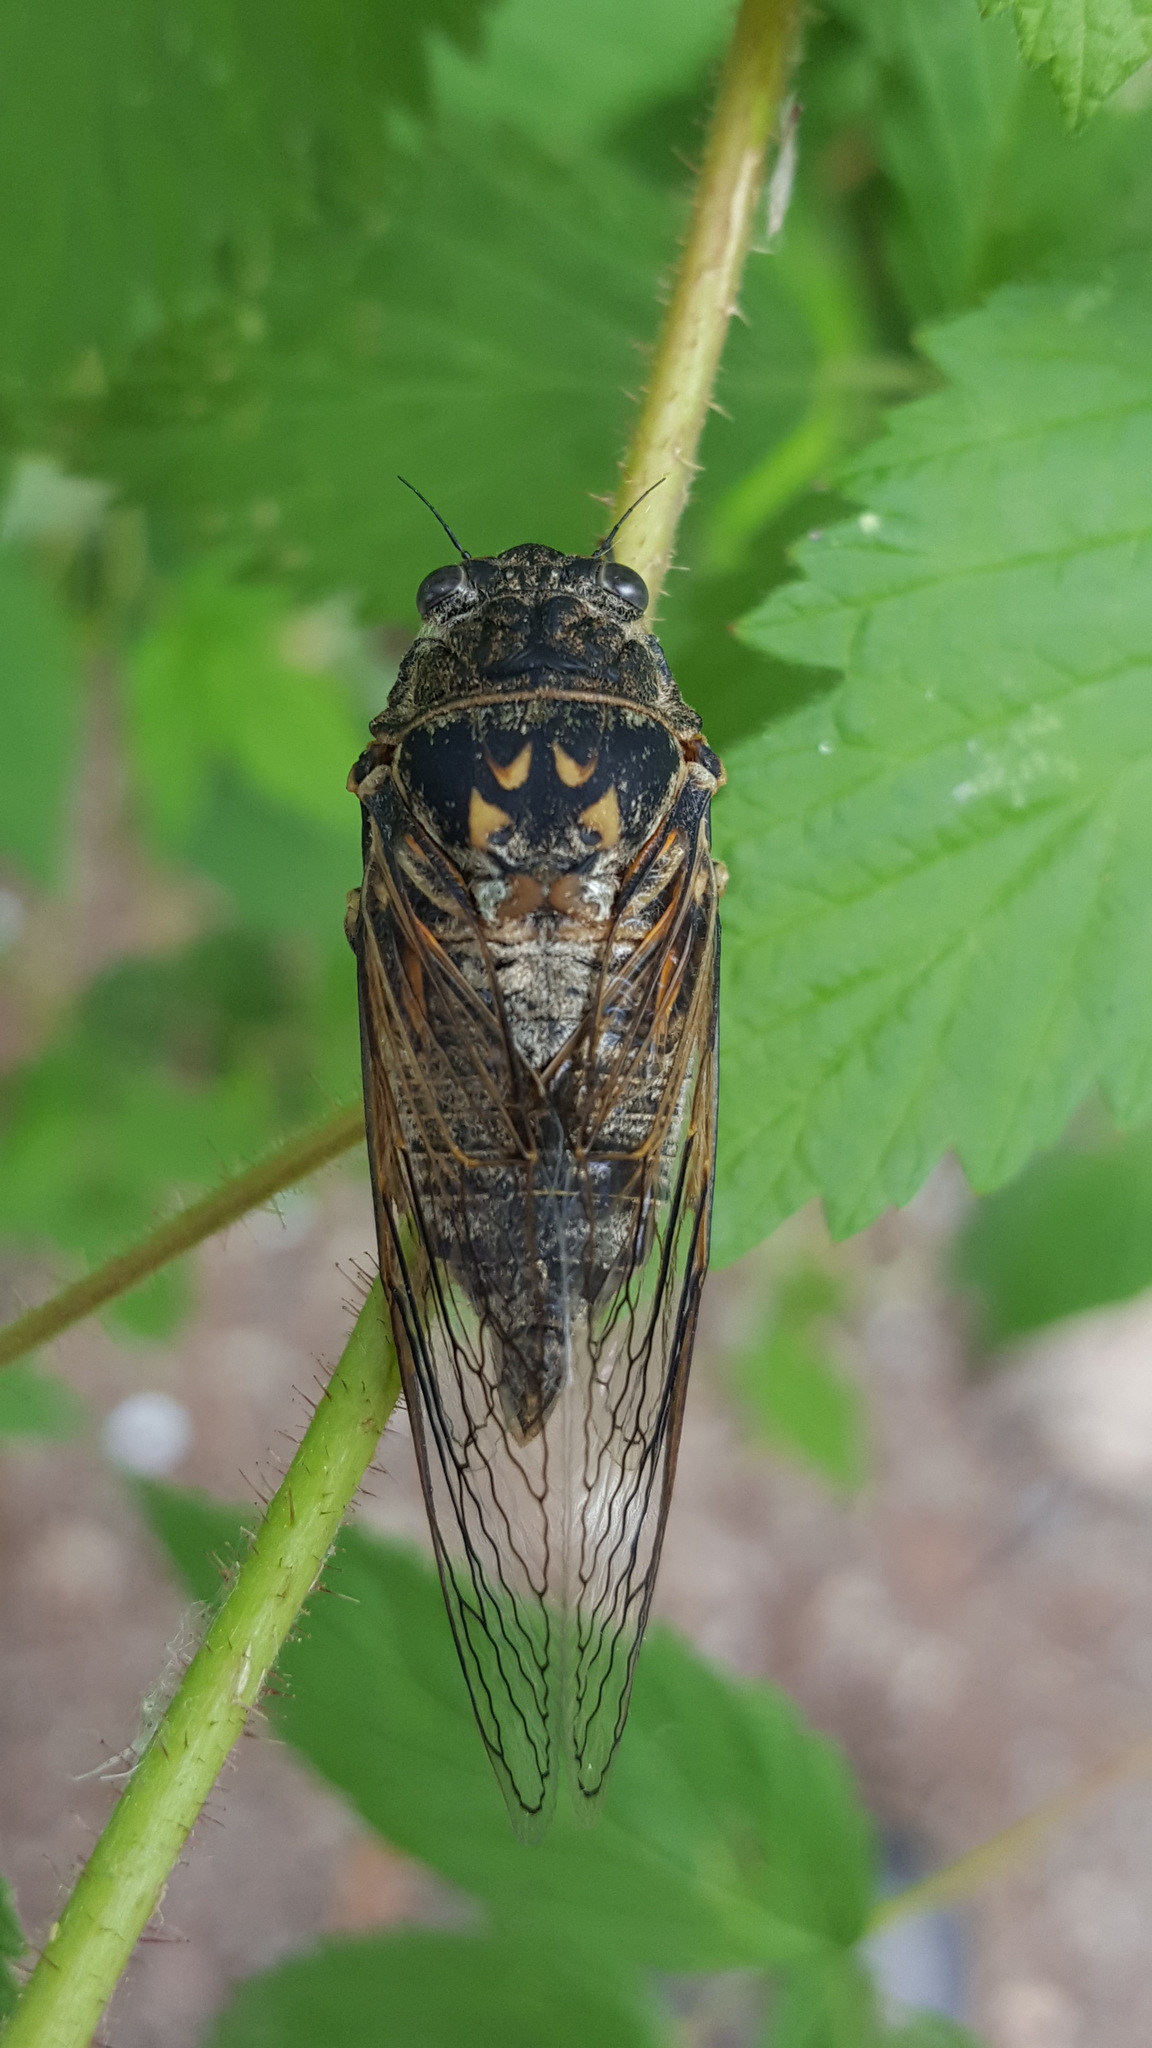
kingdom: Animalia
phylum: Arthropoda
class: Insecta
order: Hemiptera
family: Cicadidae
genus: Okanagana
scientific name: Okanagana canadensis
